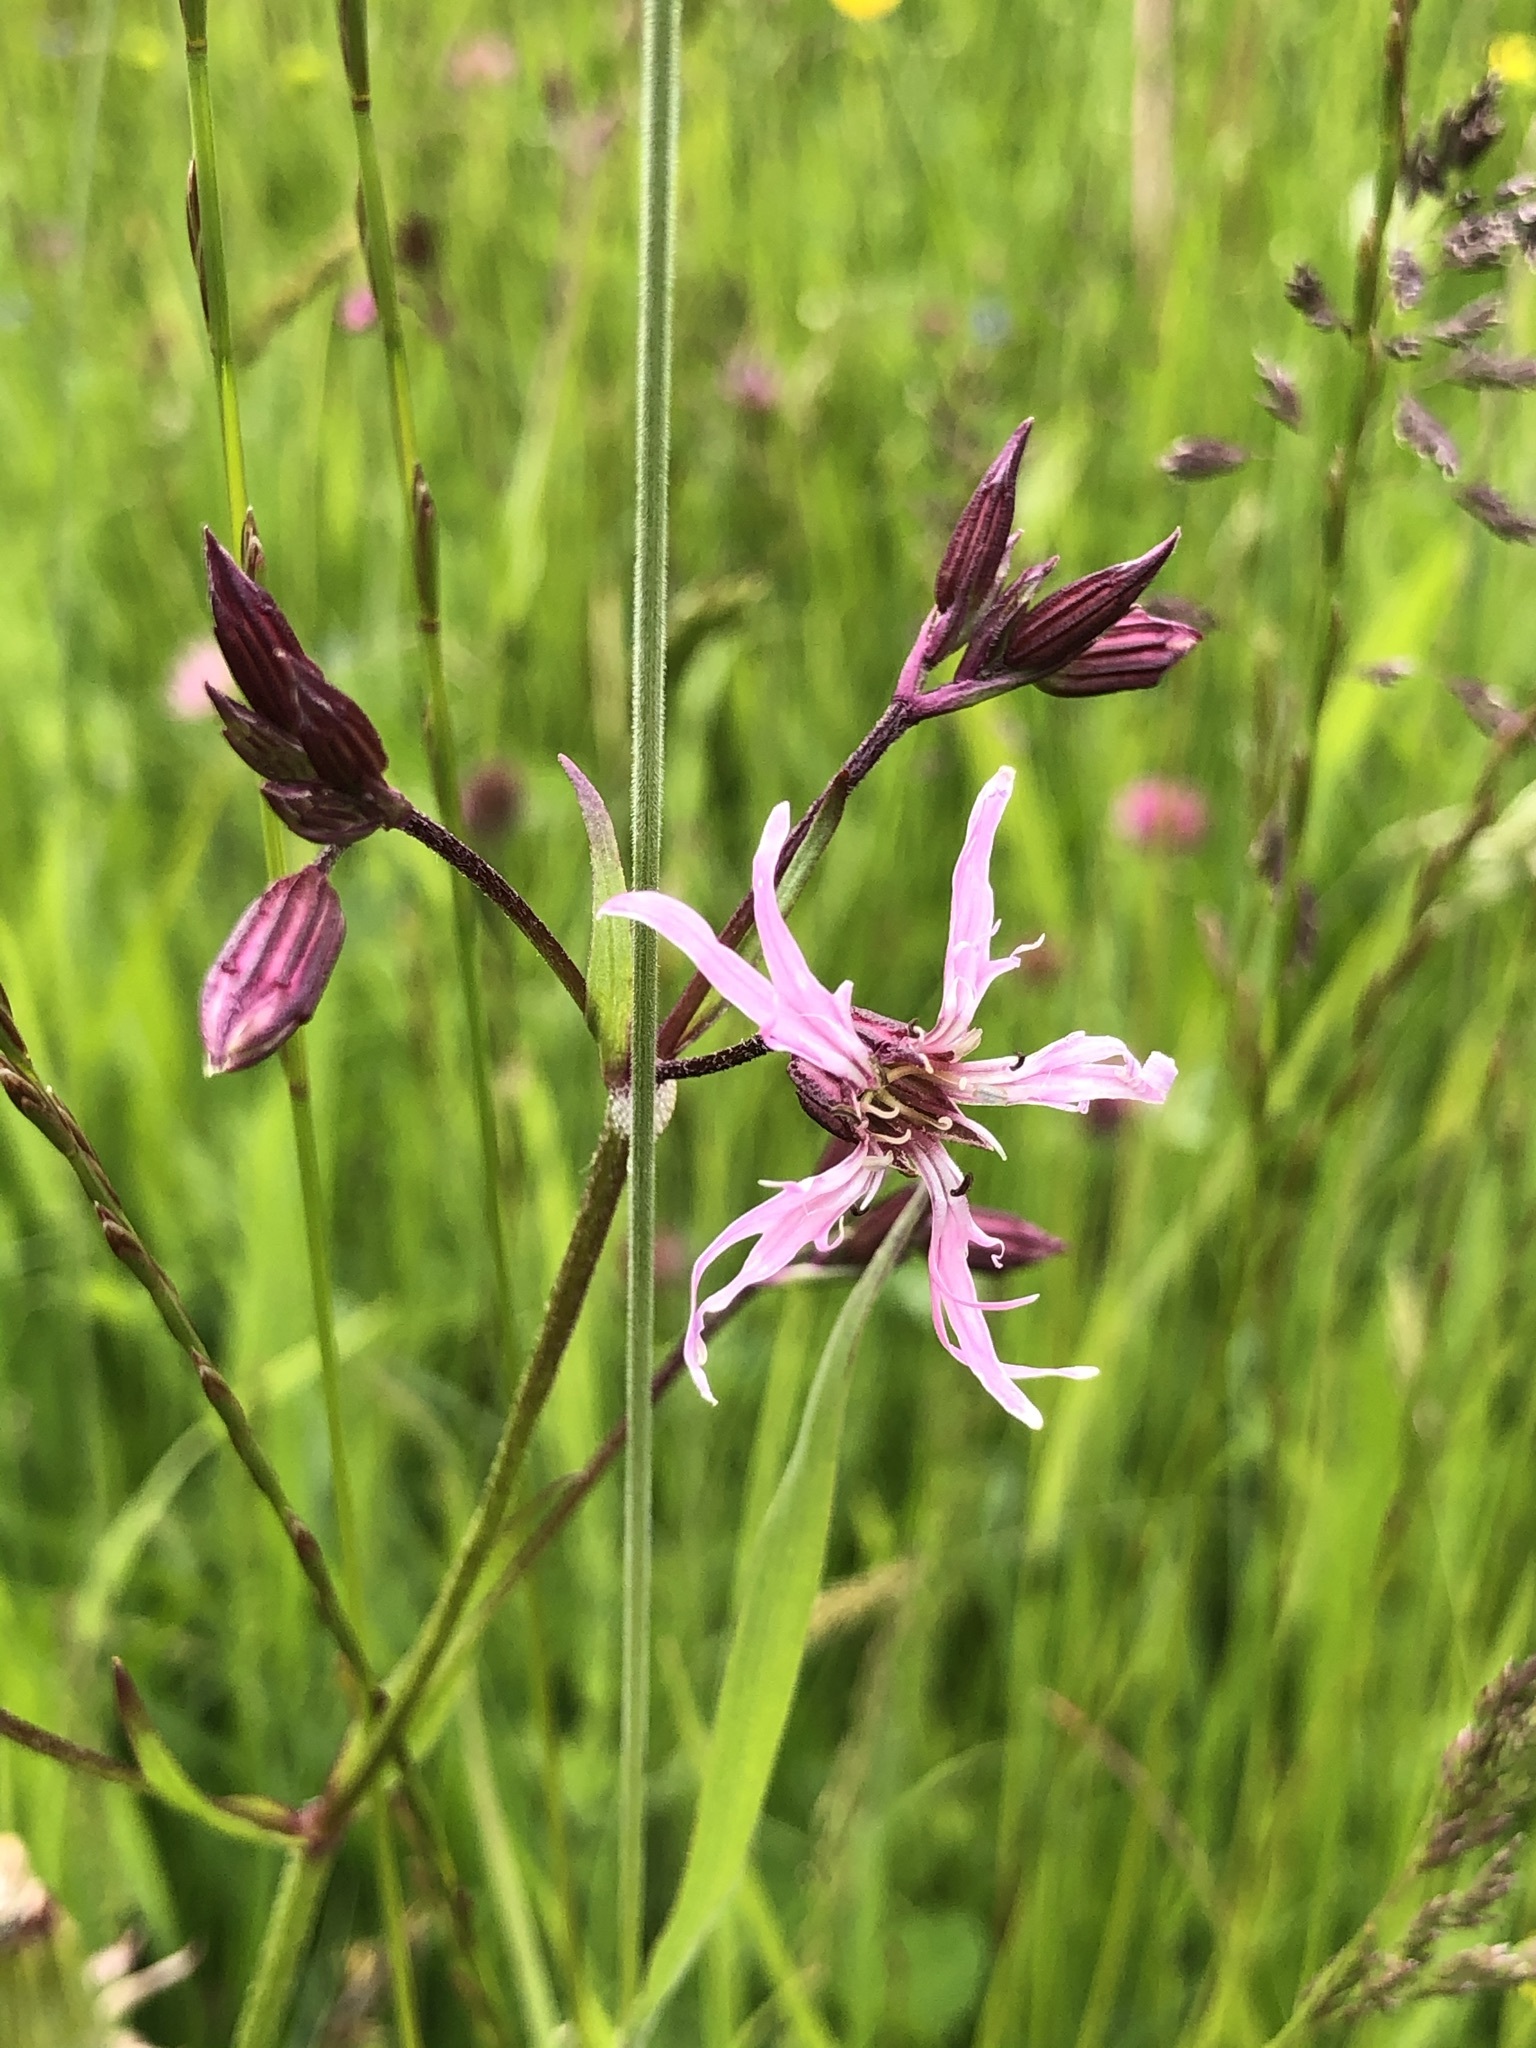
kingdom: Plantae
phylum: Tracheophyta
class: Magnoliopsida
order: Caryophyllales
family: Caryophyllaceae
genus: Silene
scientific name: Silene flos-cuculi
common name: Ragged-robin
